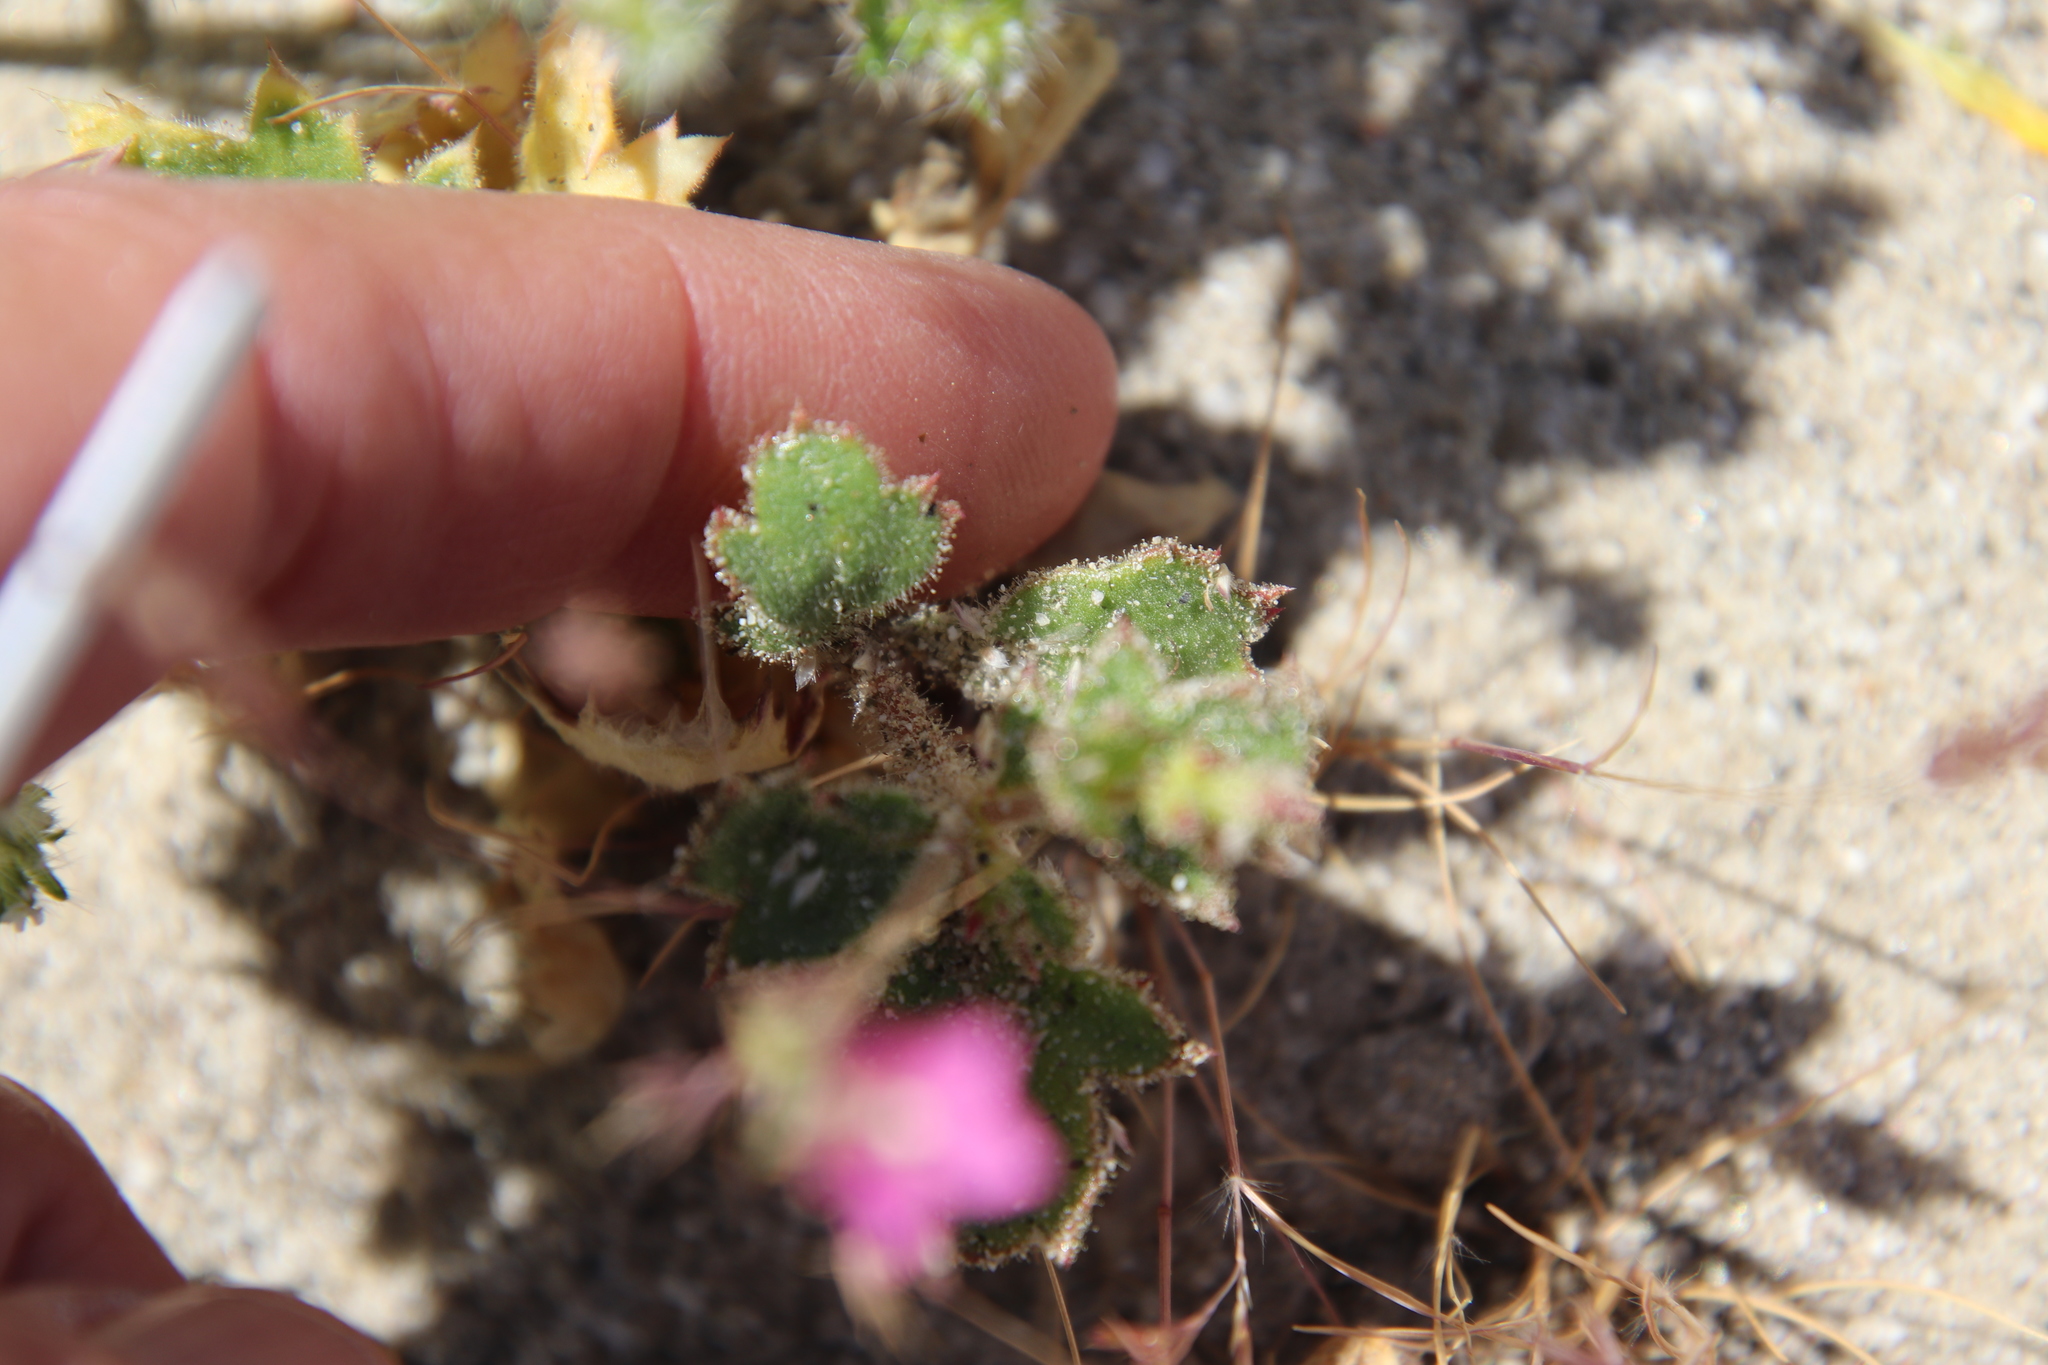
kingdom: Plantae
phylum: Tracheophyta
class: Magnoliopsida
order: Ericales
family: Polemoniaceae
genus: Aliciella
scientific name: Aliciella latifolia
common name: Broad-leaf gilia
